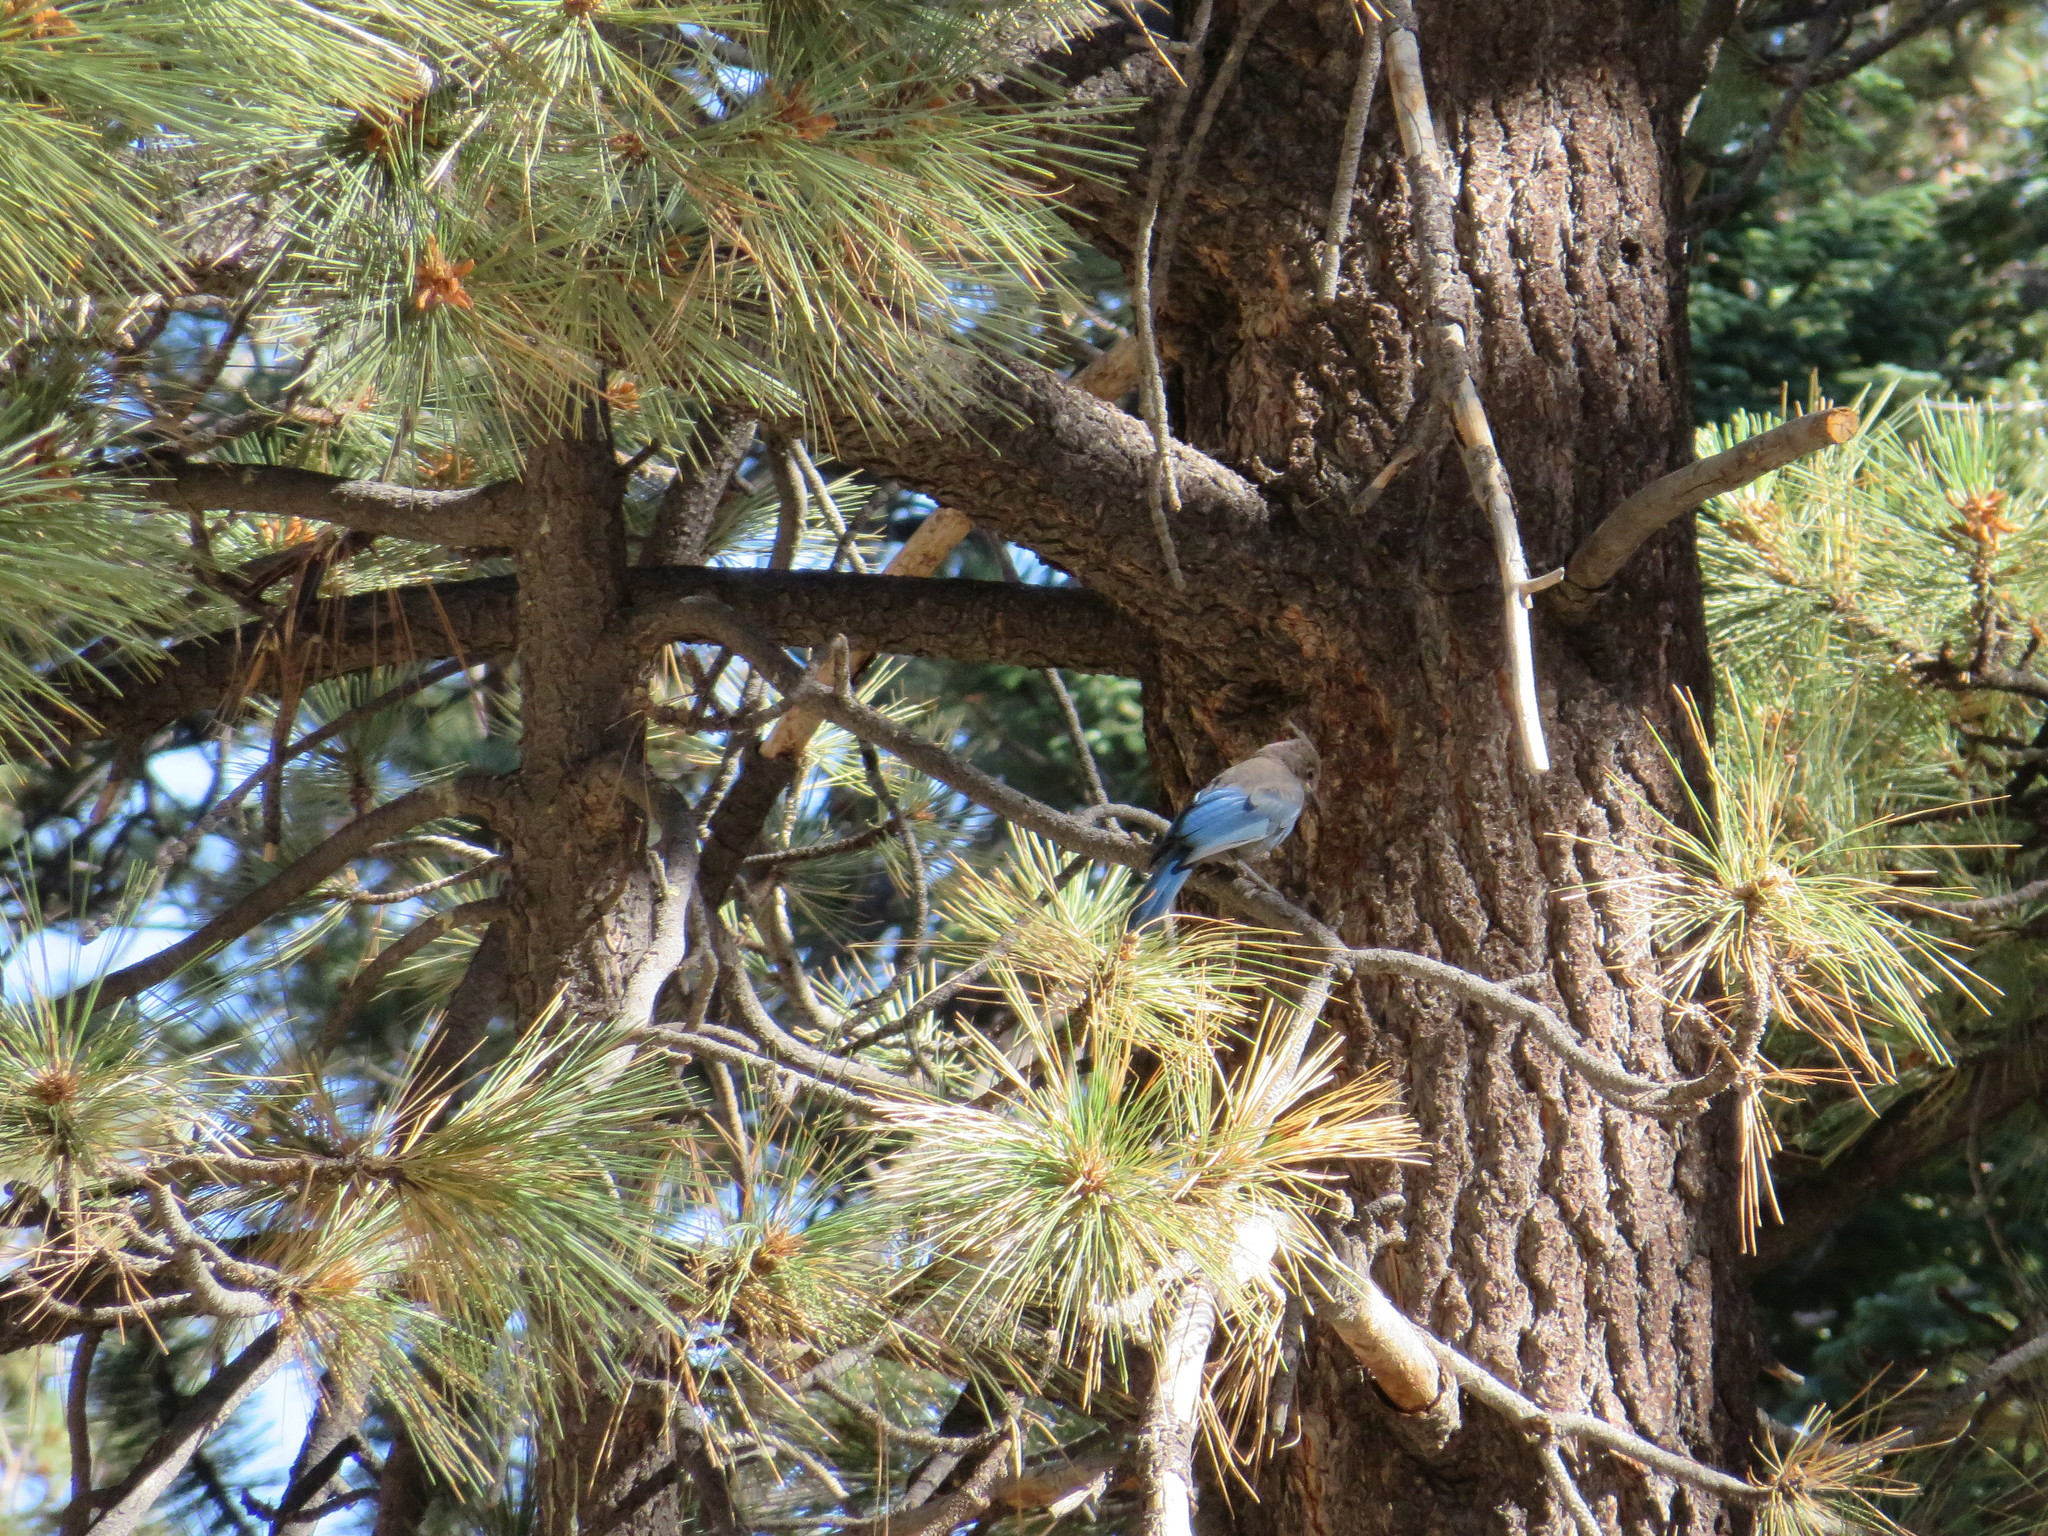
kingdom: Animalia
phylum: Chordata
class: Aves
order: Passeriformes
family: Corvidae
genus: Cyanocitta
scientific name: Cyanocitta stelleri
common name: Steller's jay
